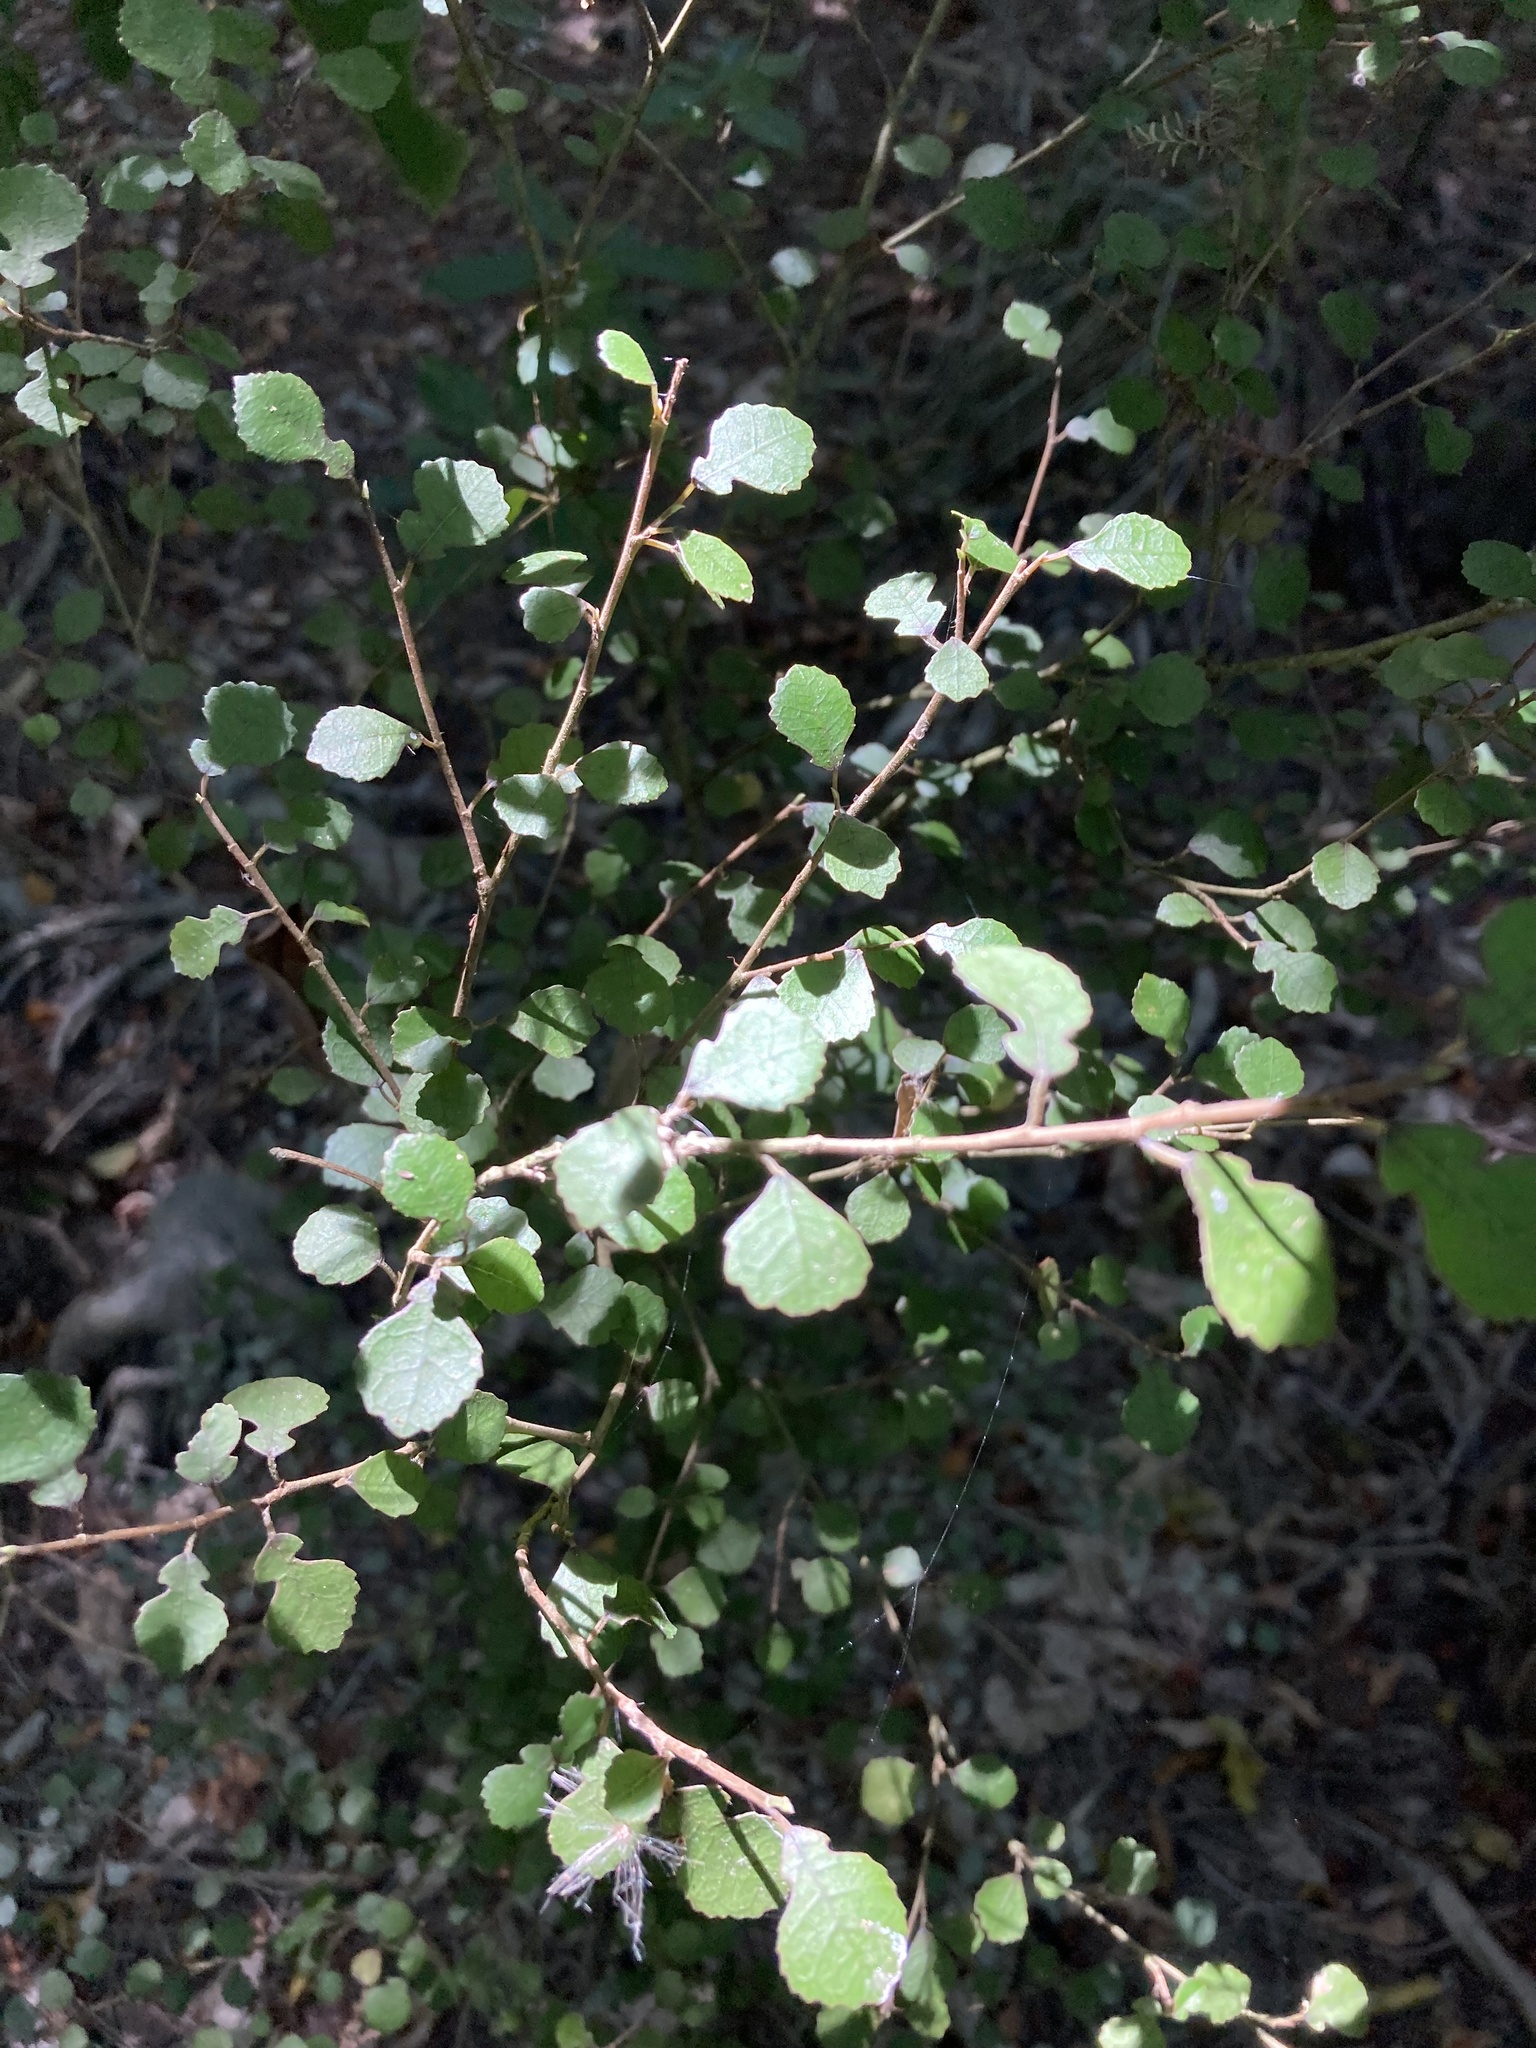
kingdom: Plantae
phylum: Tracheophyta
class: Magnoliopsida
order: Rosales
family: Moraceae
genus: Paratrophis
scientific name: Paratrophis microphylla
